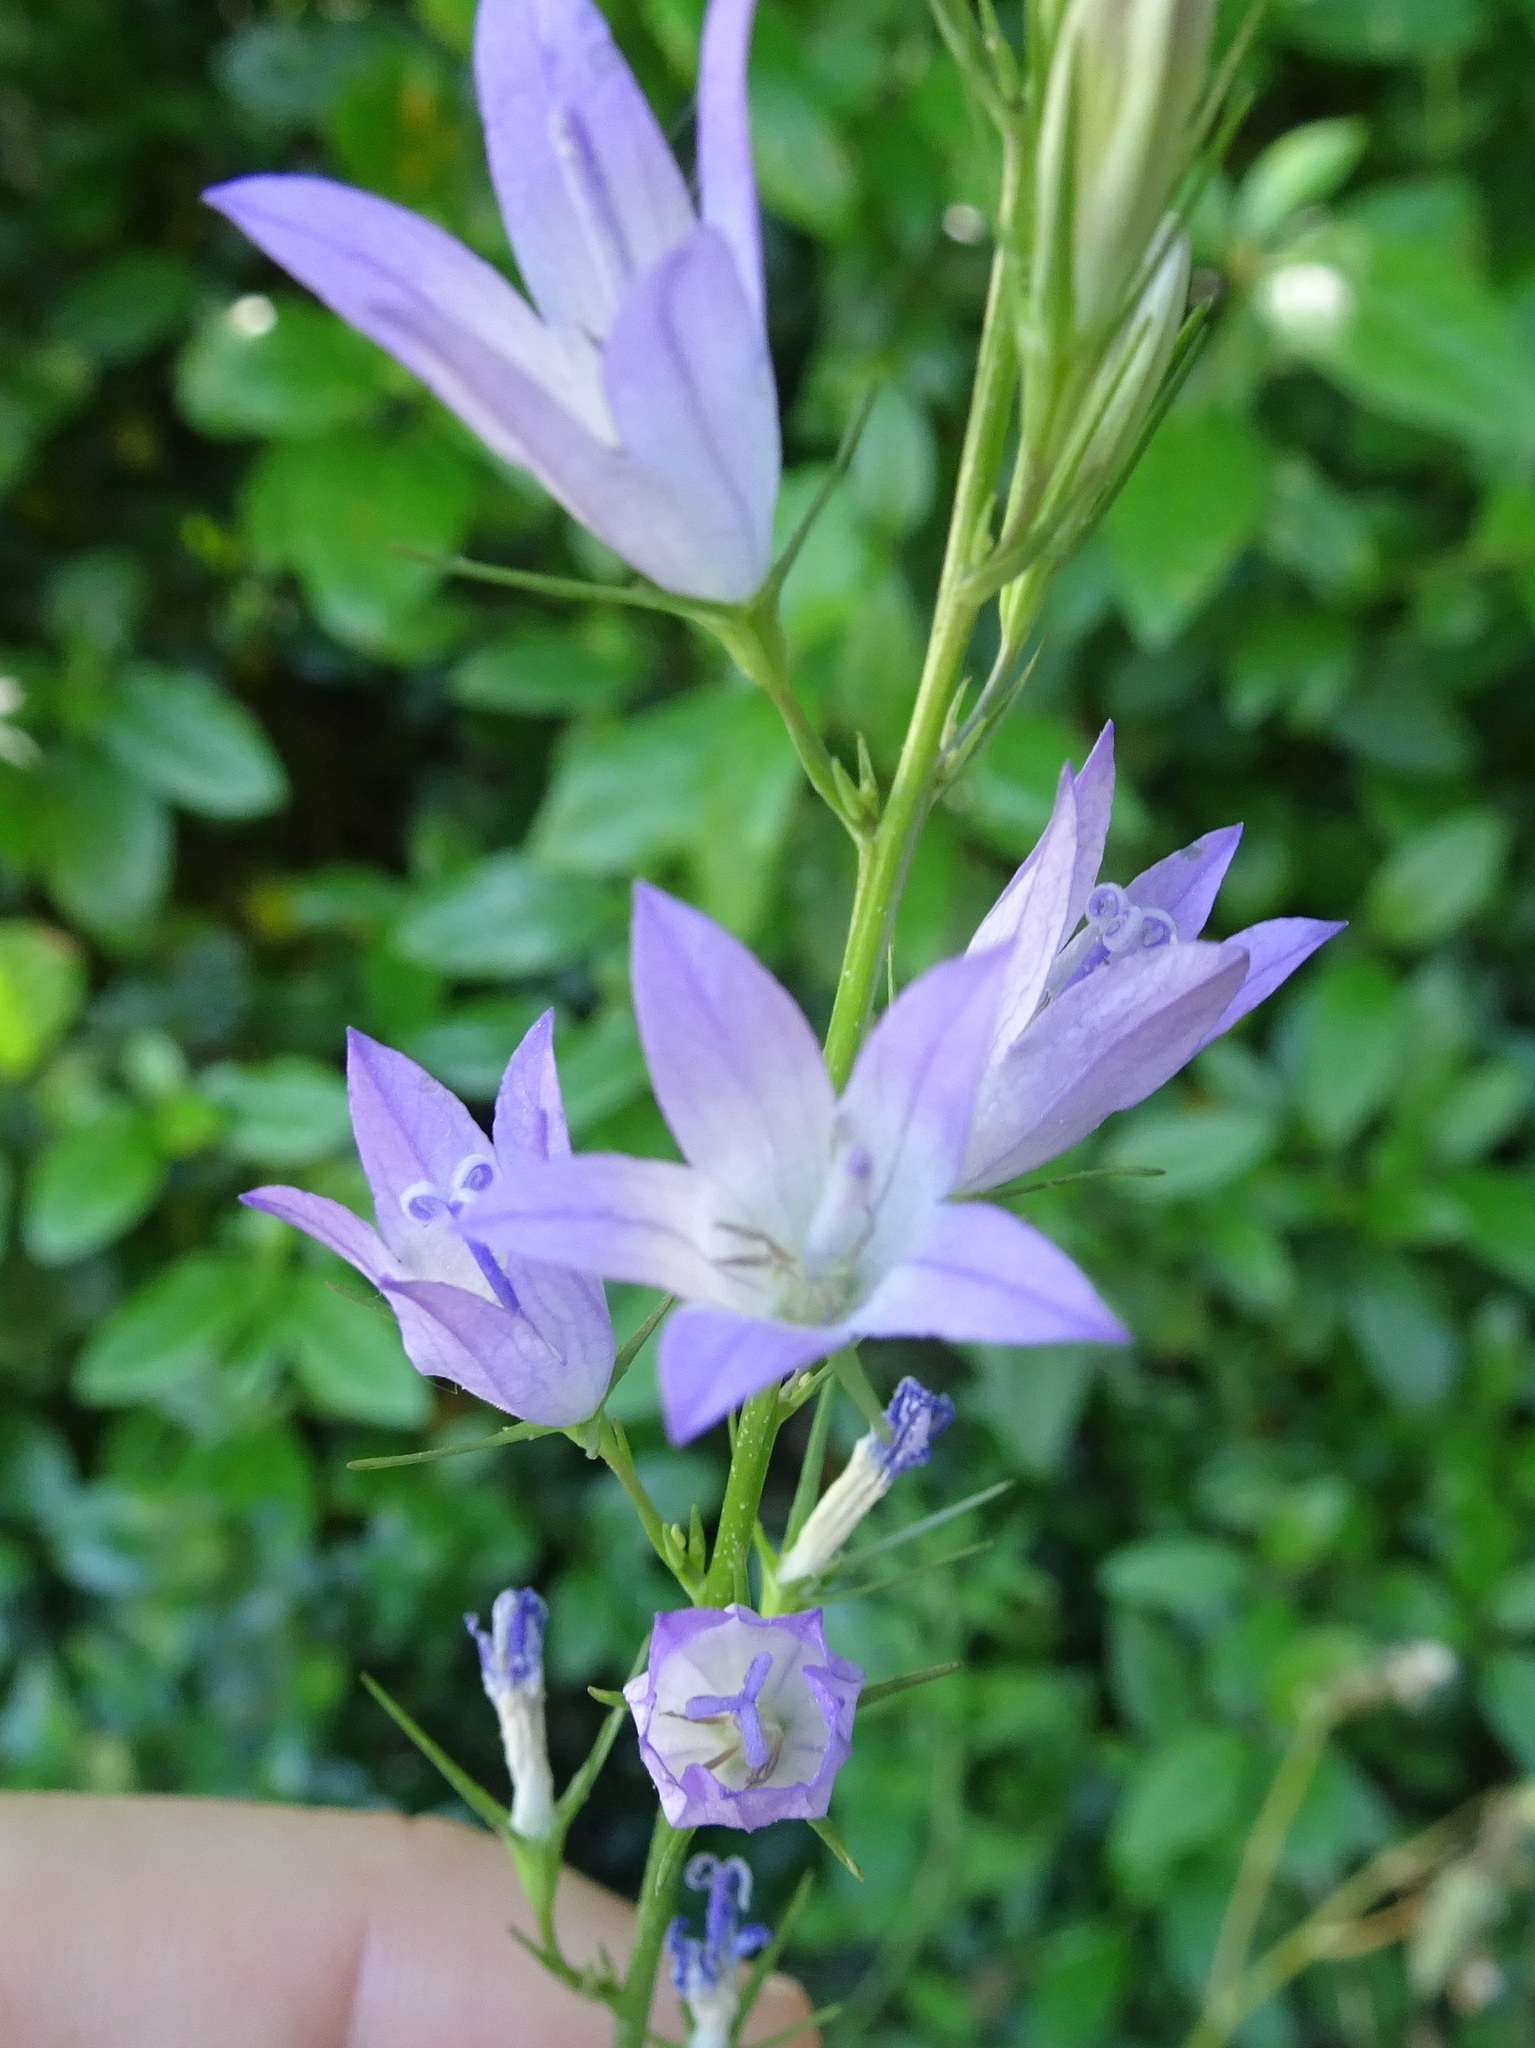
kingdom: Plantae
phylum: Tracheophyta
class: Magnoliopsida
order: Asterales
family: Campanulaceae
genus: Campanula
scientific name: Campanula rapunculus
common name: Rampion bellflower
